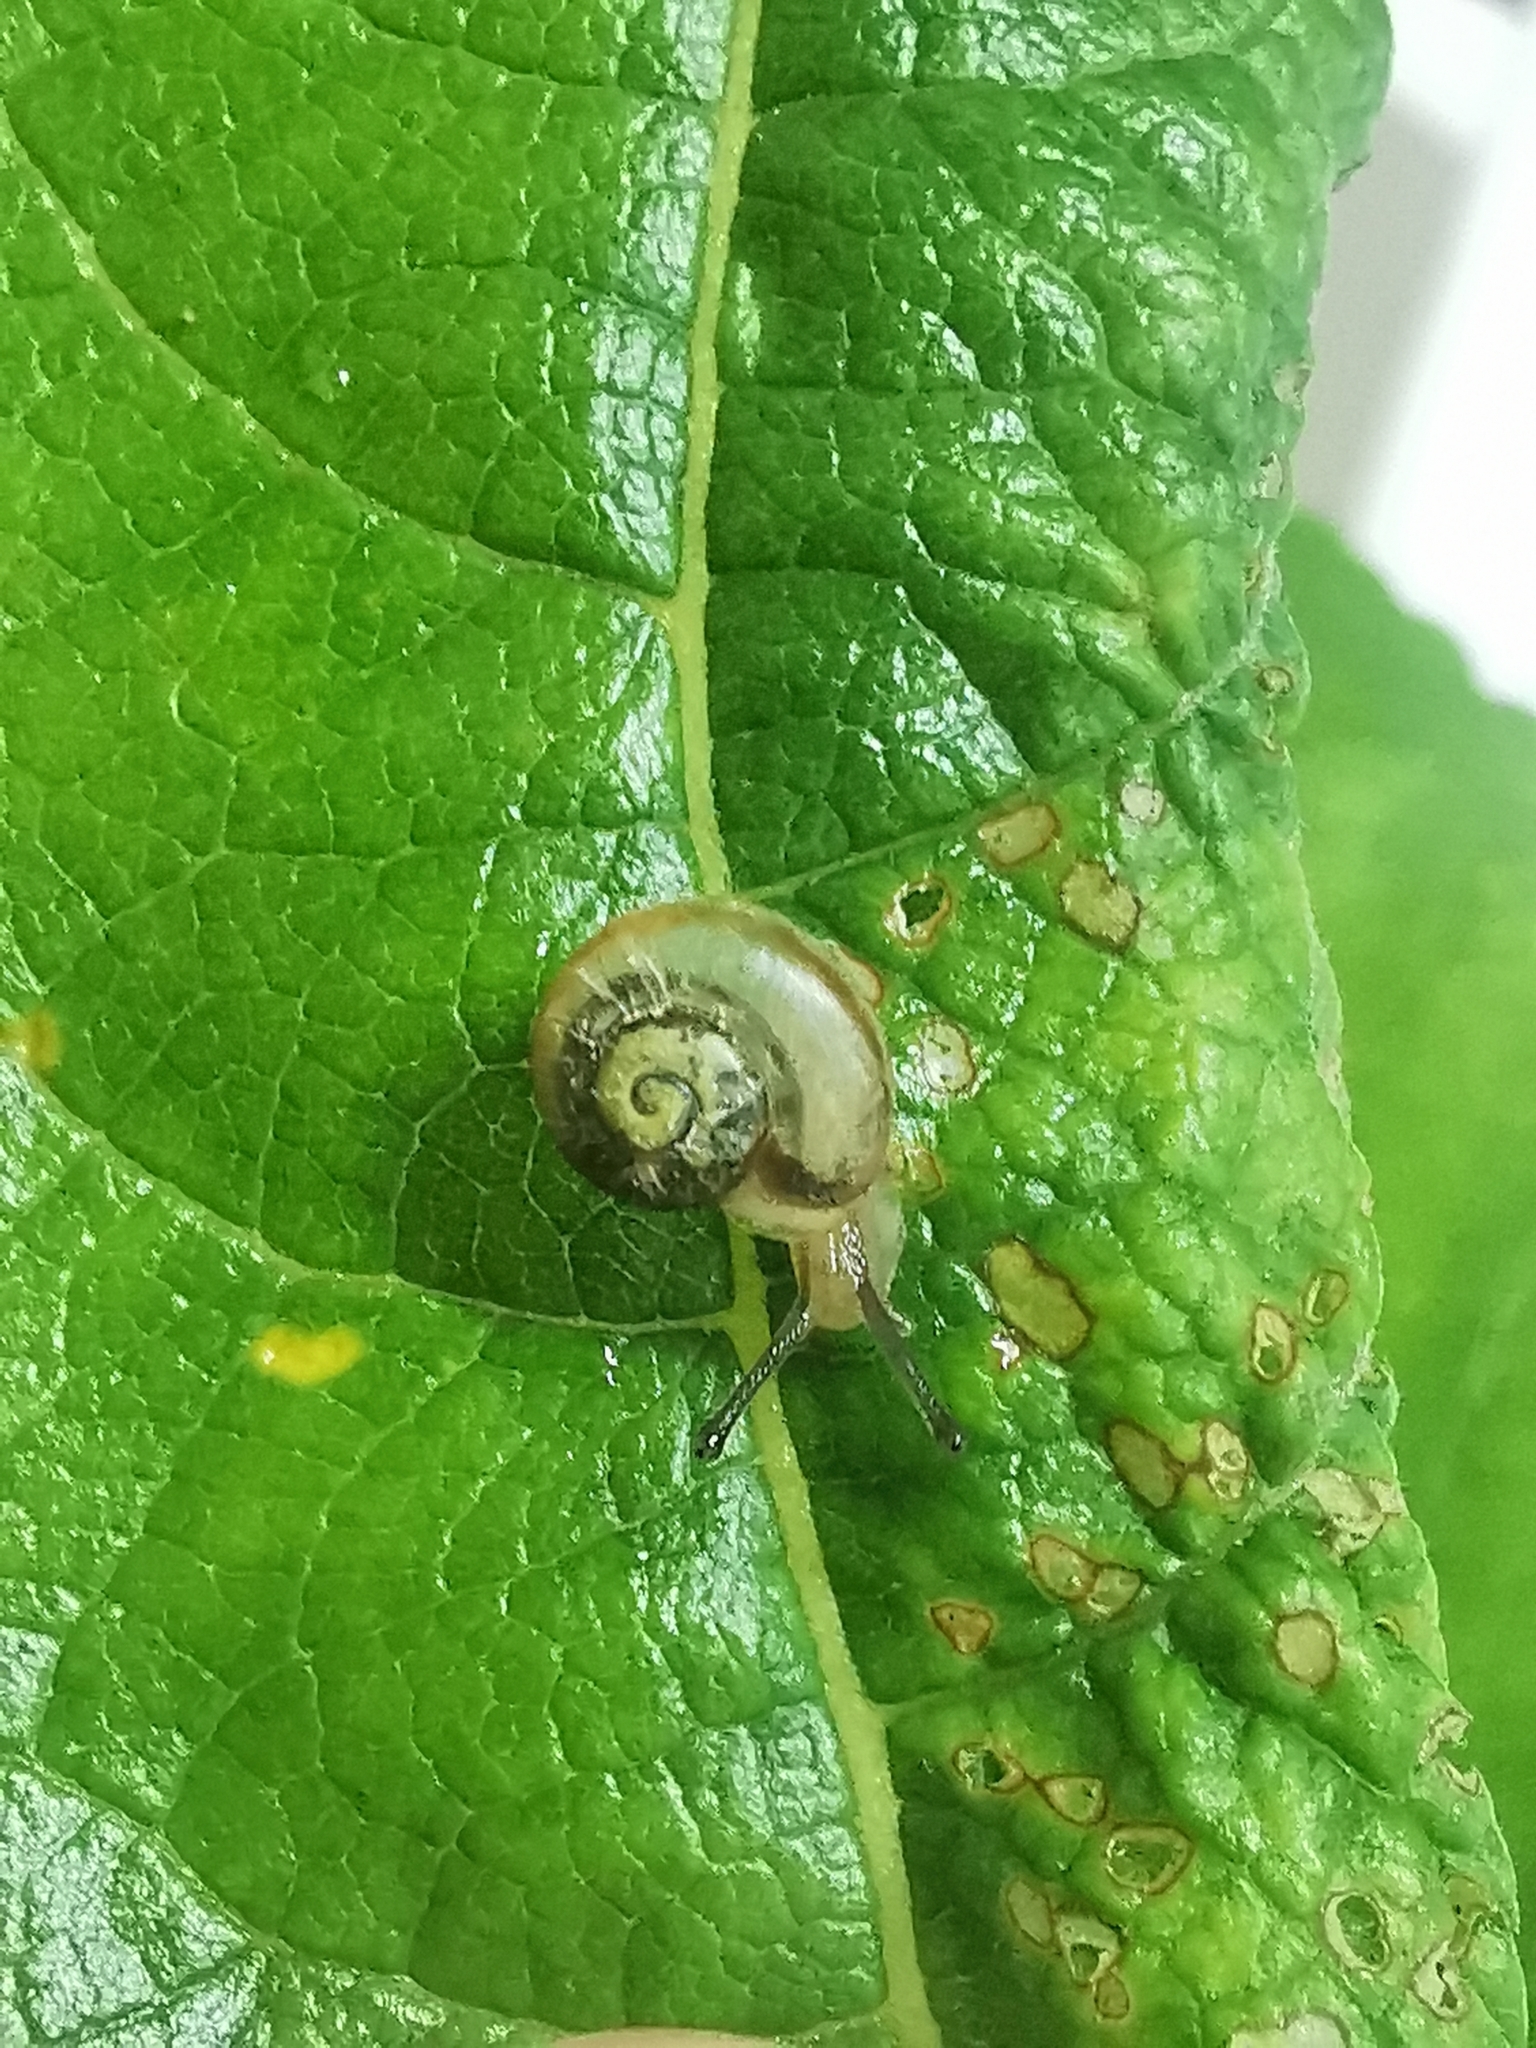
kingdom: Animalia
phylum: Mollusca
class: Gastropoda
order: Stylommatophora
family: Camaenidae
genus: Fruticicola
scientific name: Fruticicola fruticum
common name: Bush snail
